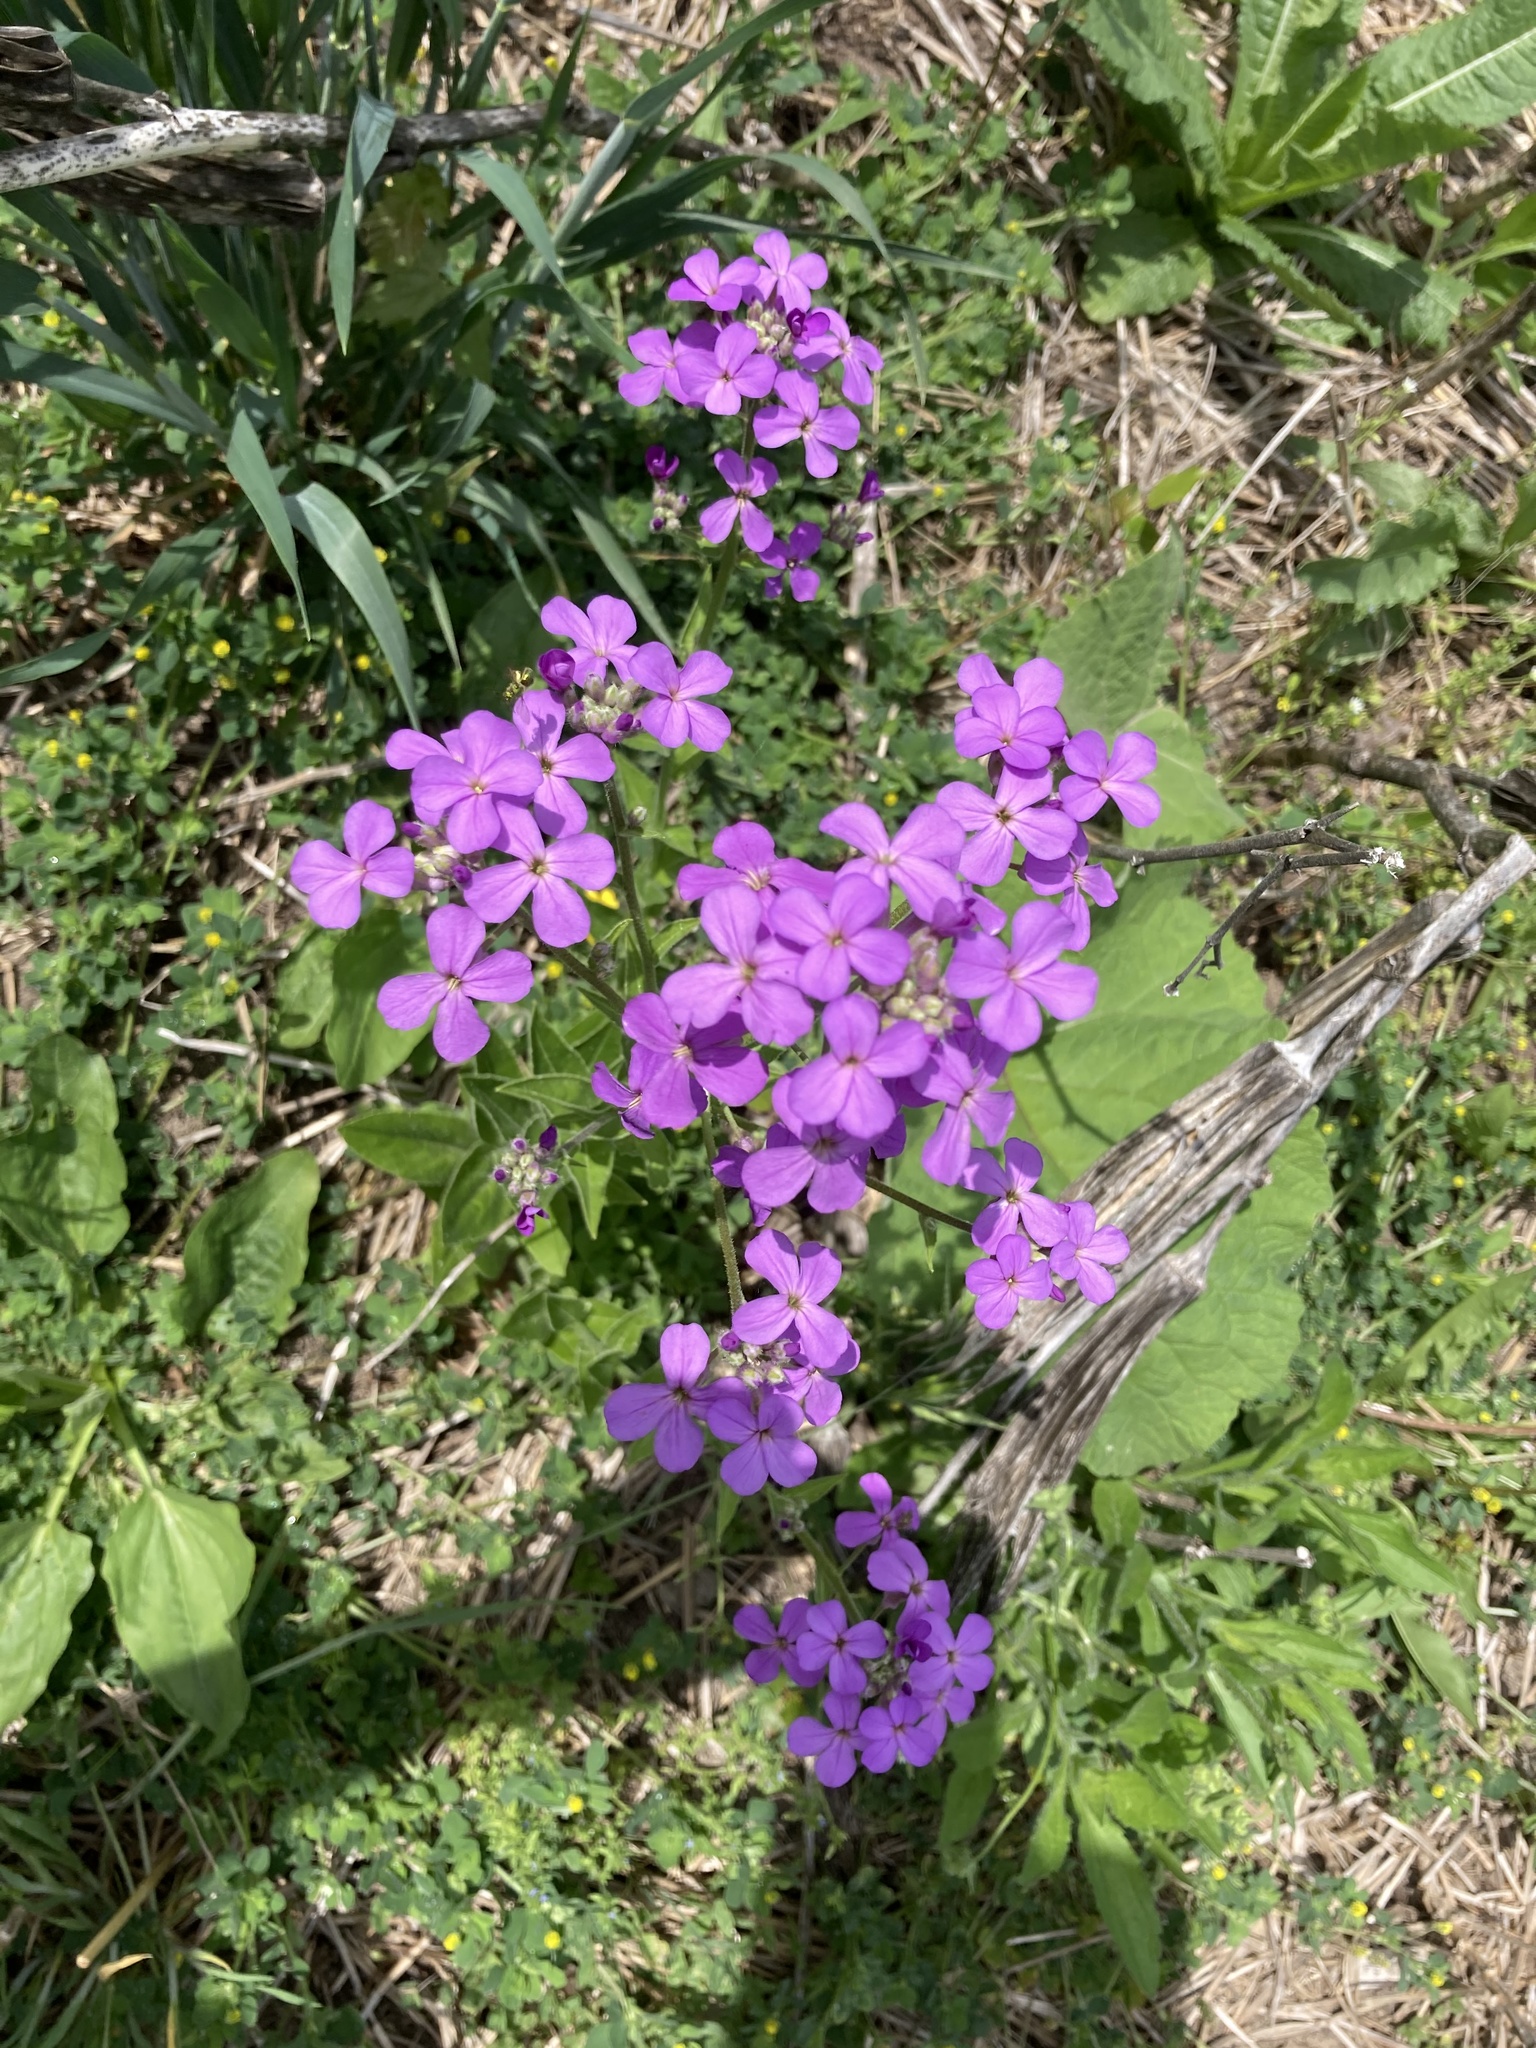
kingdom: Plantae
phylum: Tracheophyta
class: Magnoliopsida
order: Brassicales
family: Brassicaceae
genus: Hesperis
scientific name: Hesperis matronalis
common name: Dame's-violet
